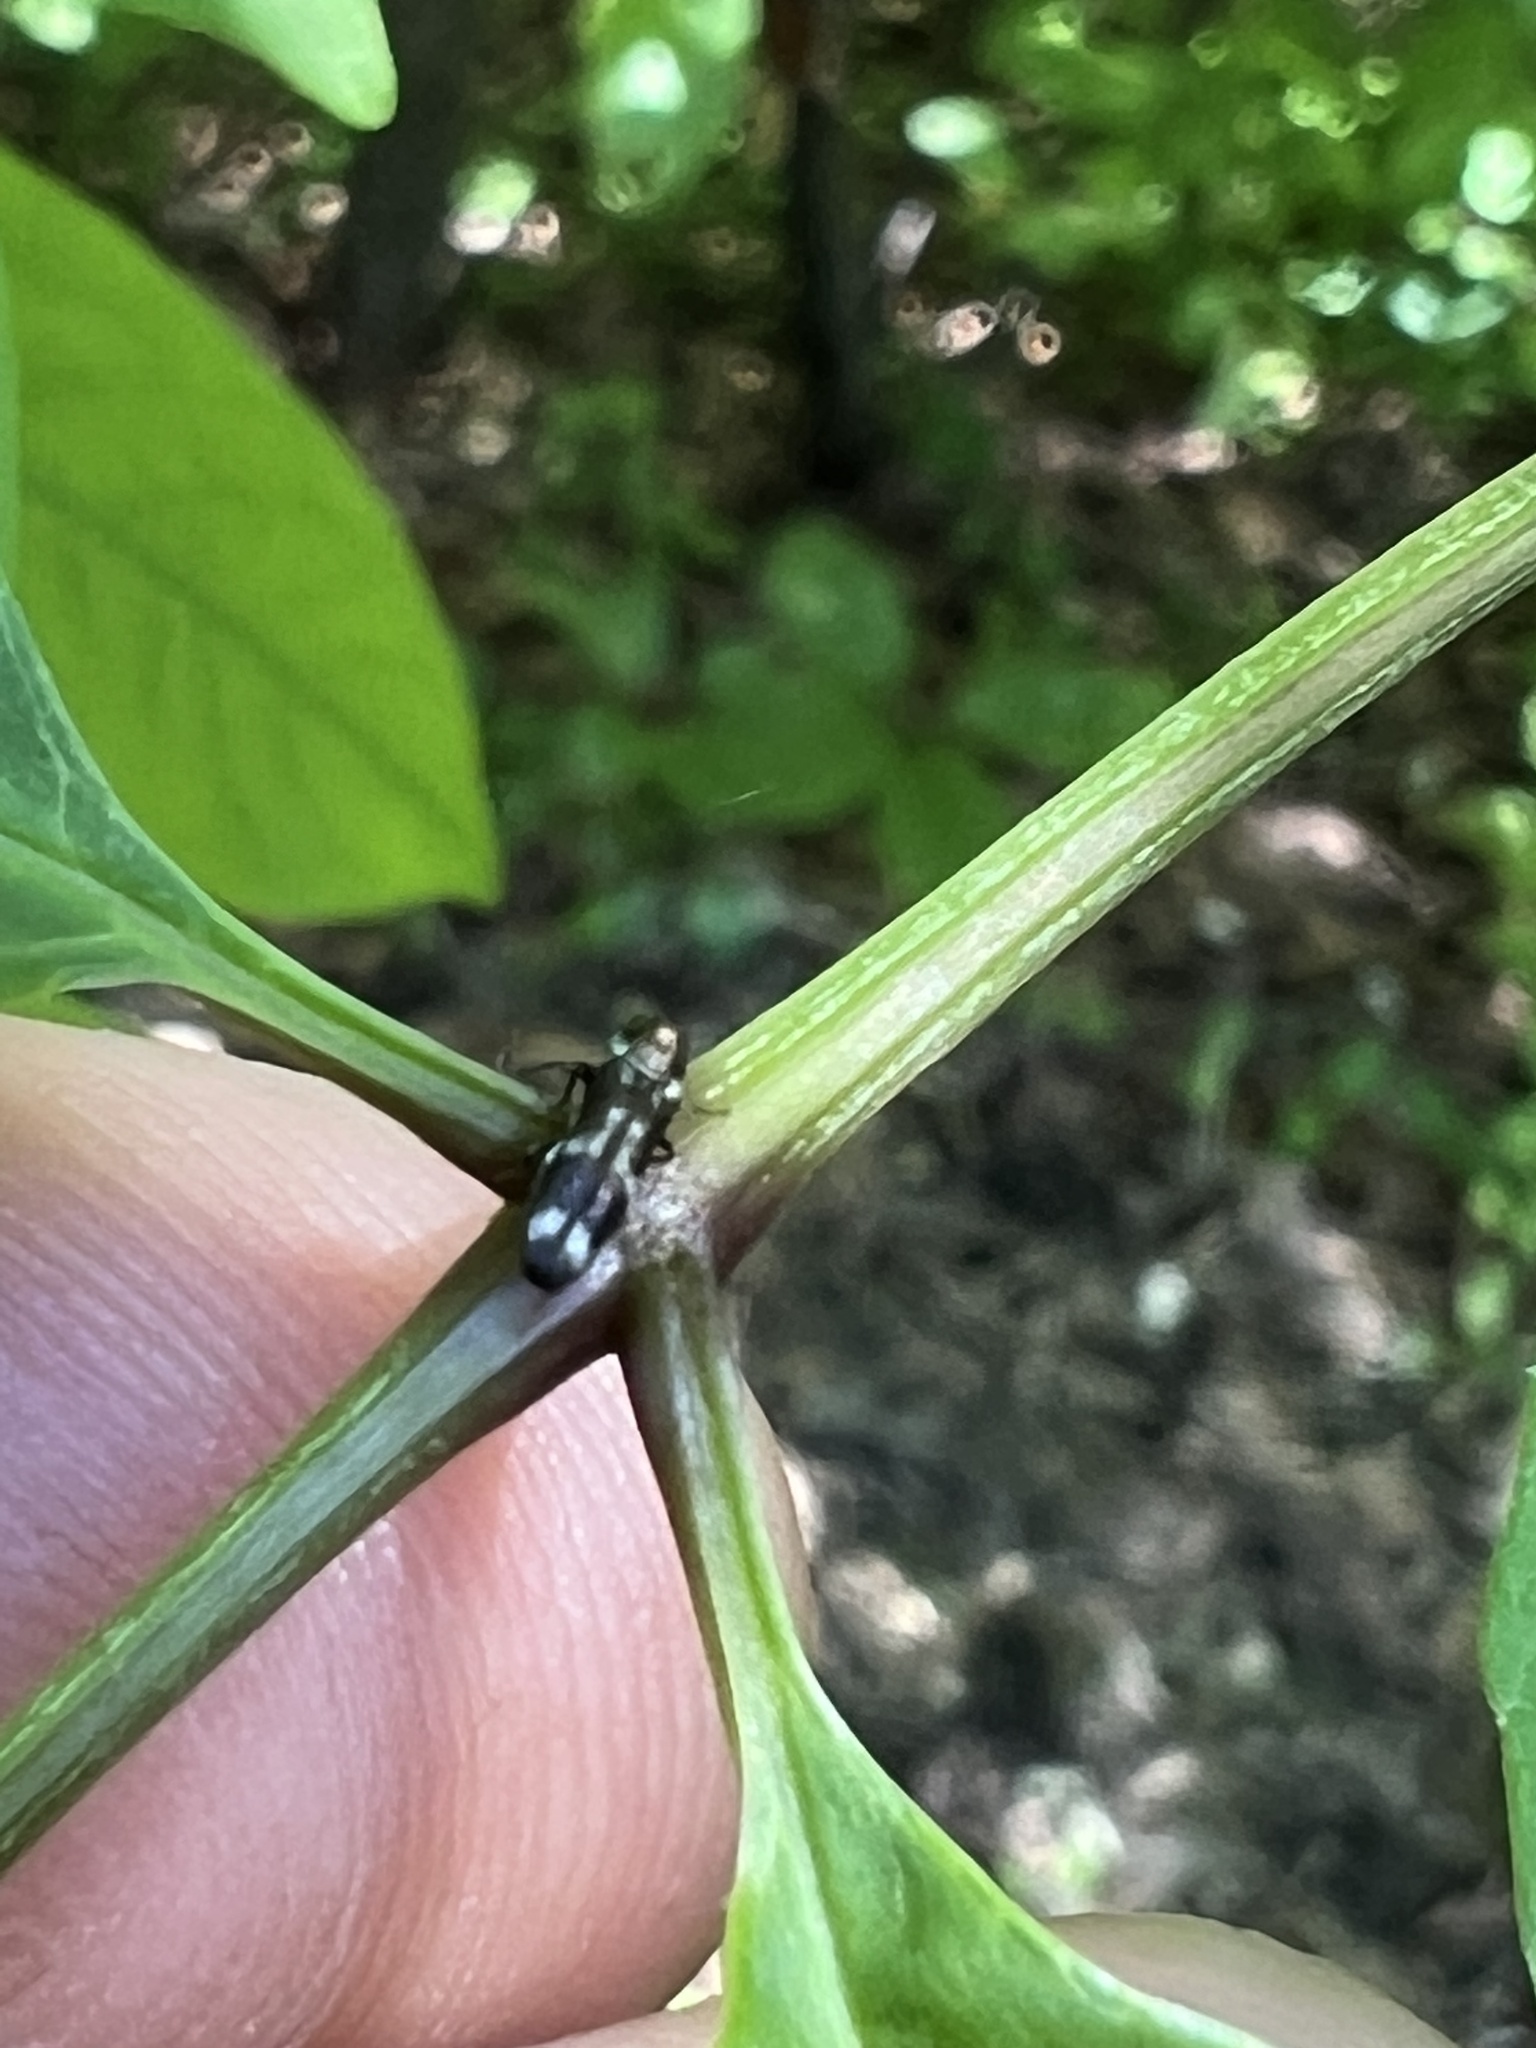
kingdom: Animalia
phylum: Arthropoda
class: Insecta
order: Coleoptera
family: Buprestidae
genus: Agrilus
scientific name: Agrilus subcinctus
